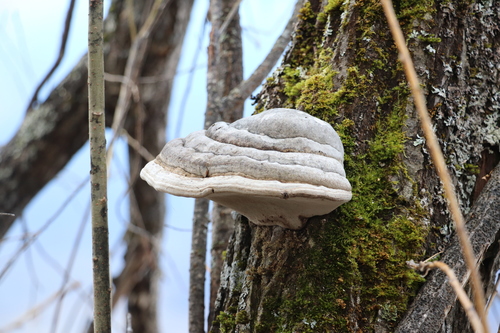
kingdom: Fungi
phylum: Basidiomycota
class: Agaricomycetes
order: Polyporales
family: Polyporaceae
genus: Fomes
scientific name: Fomes fomentarius
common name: Hoof fungus
